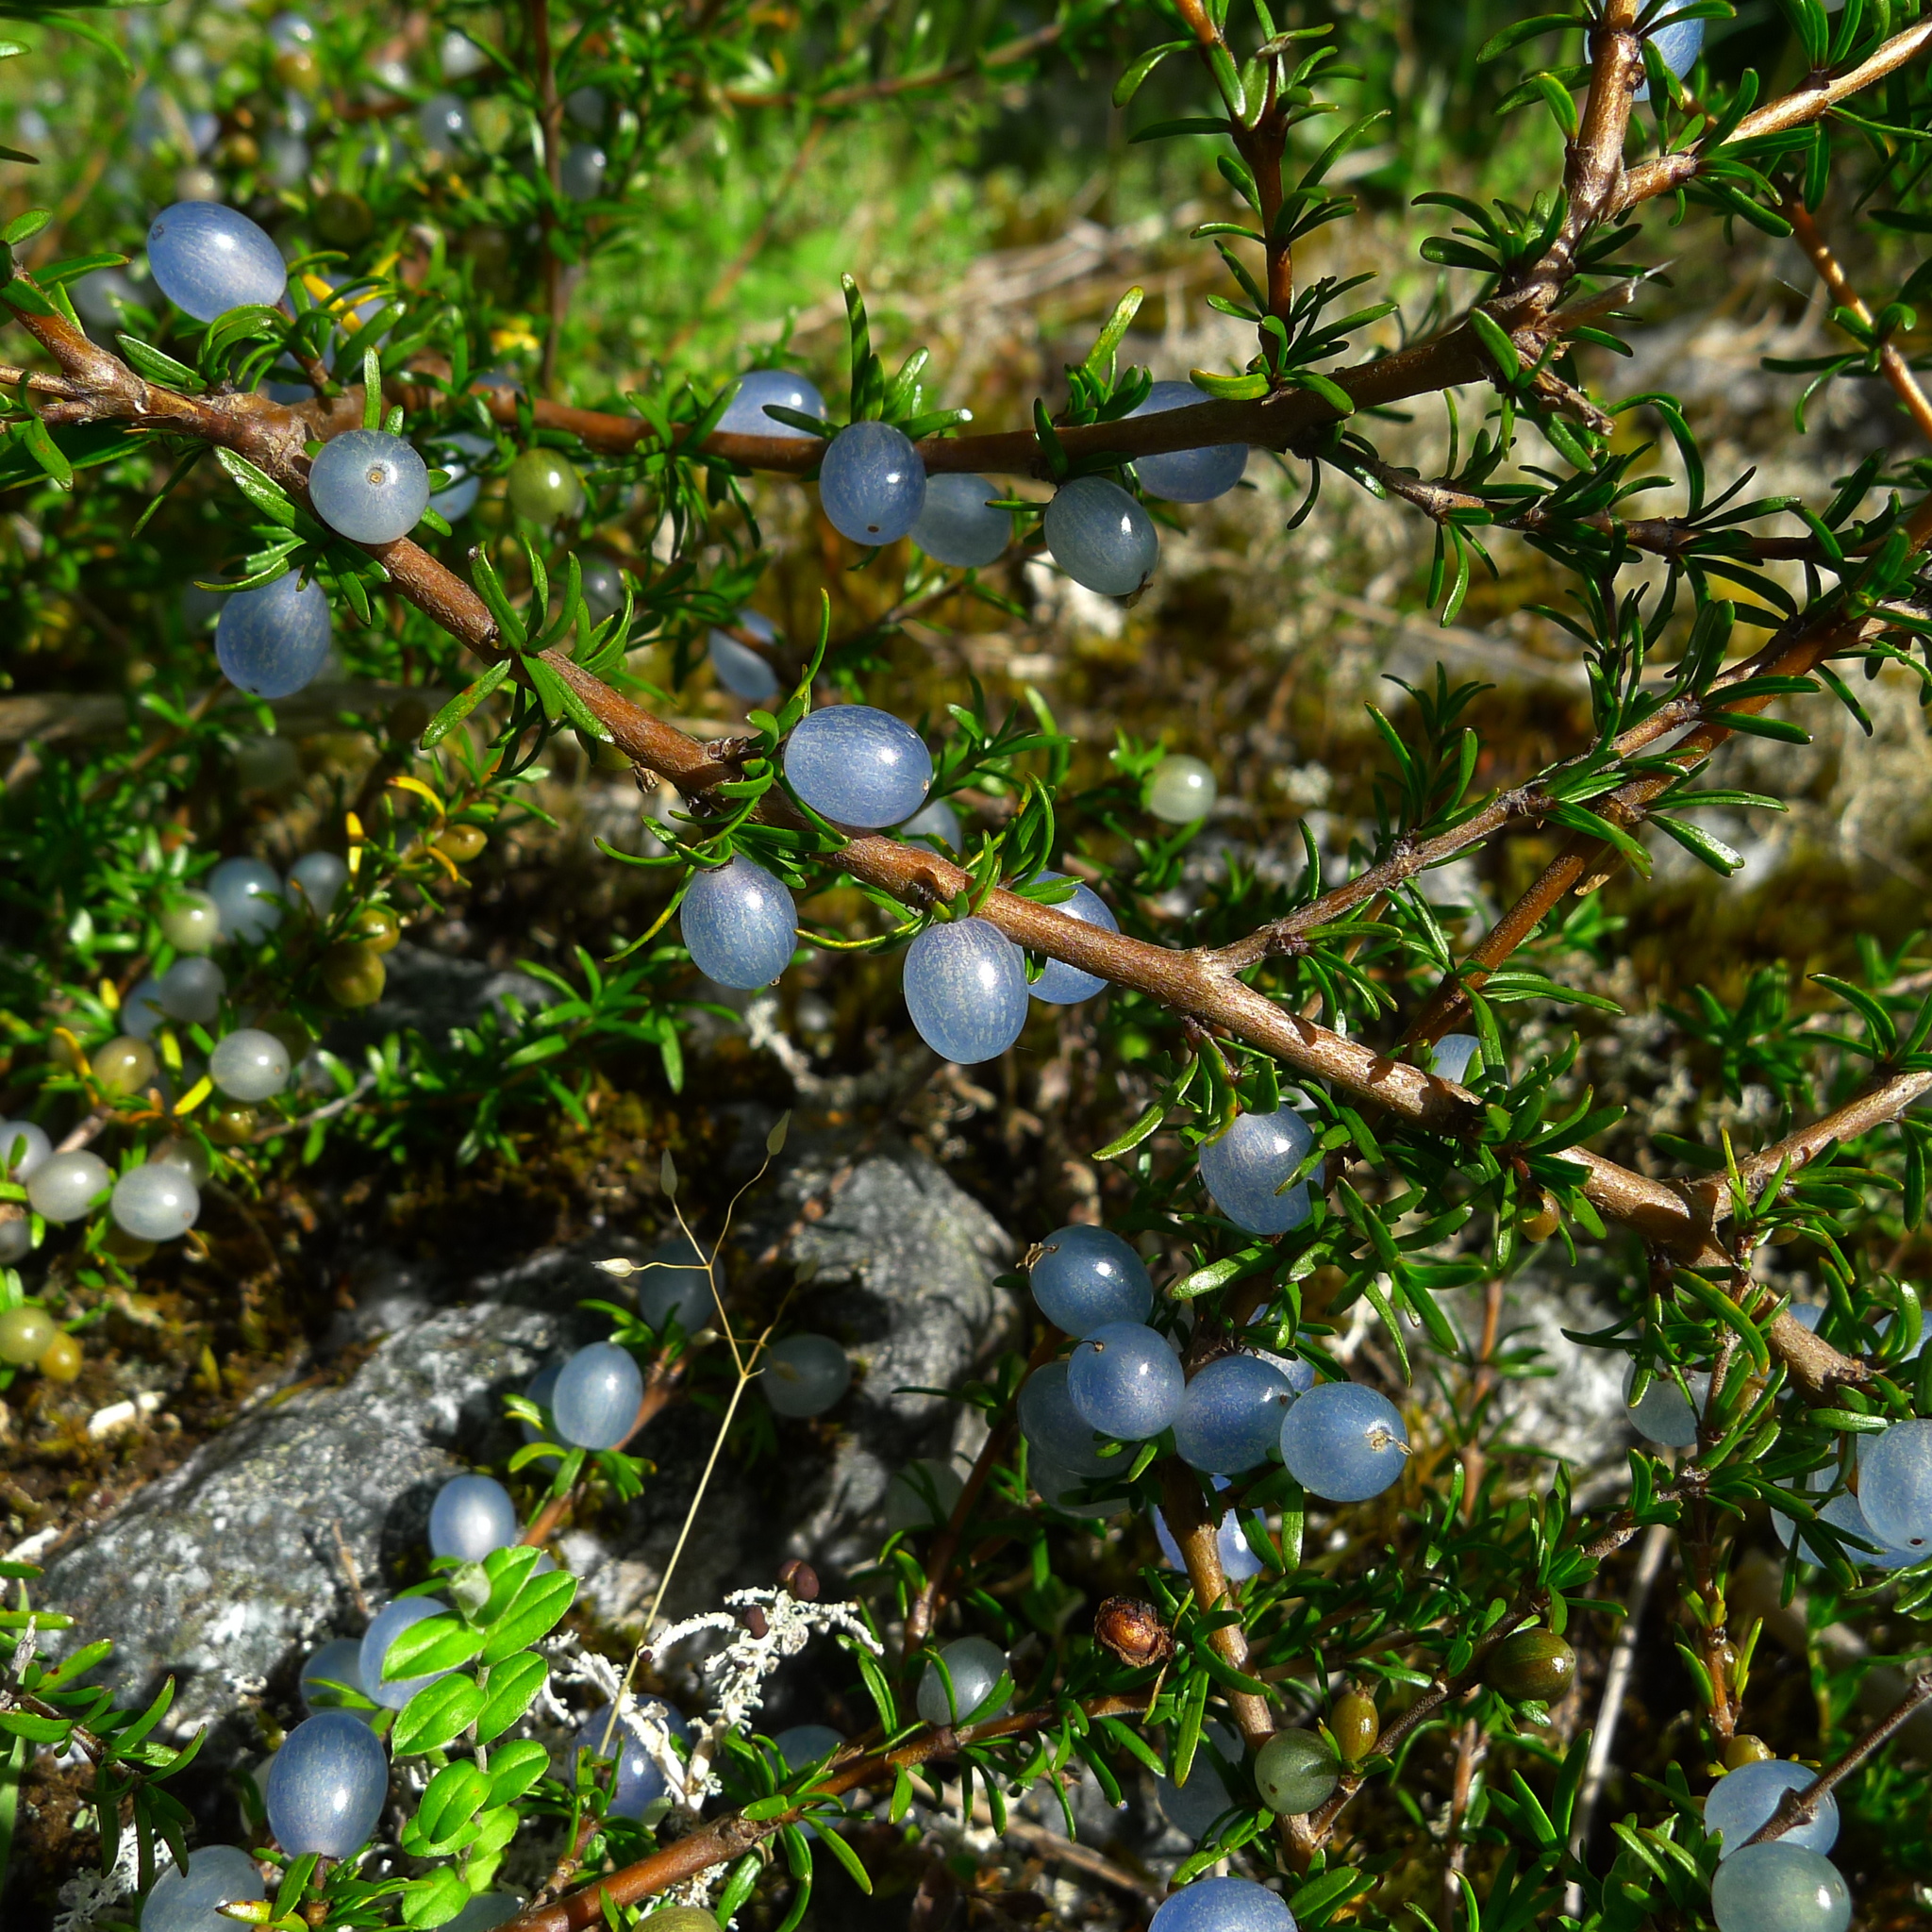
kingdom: Plantae
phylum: Tracheophyta
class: Magnoliopsida
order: Gentianales
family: Rubiaceae
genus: Coprosma
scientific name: Coprosma rugosa
